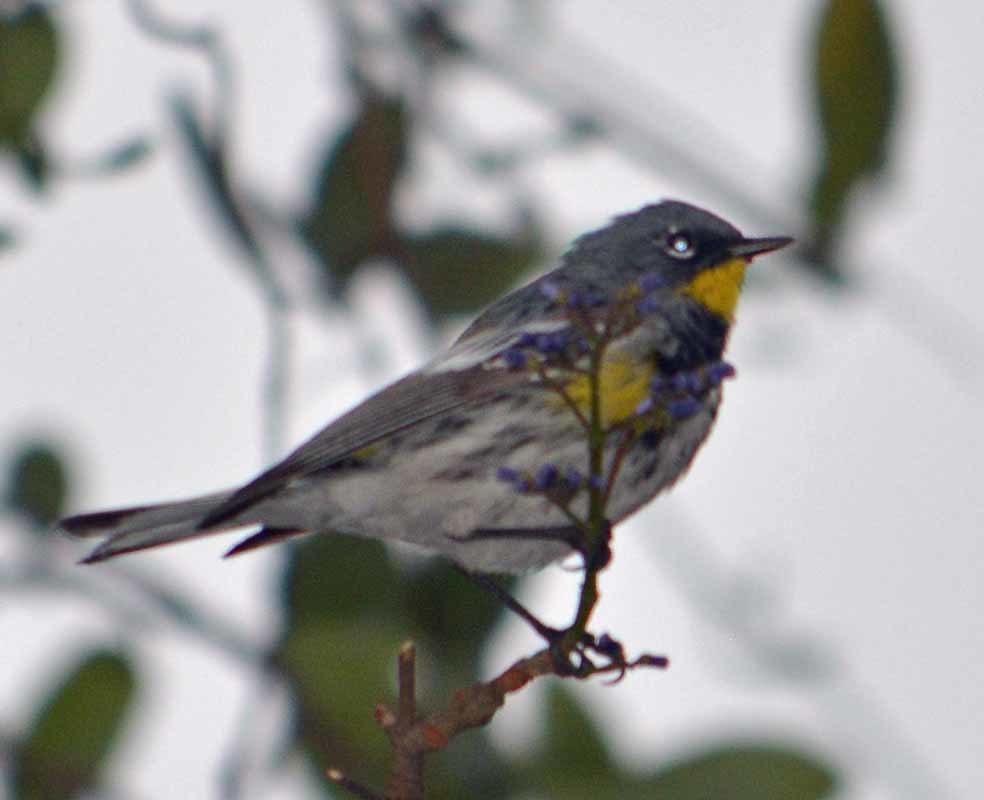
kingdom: Animalia
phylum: Chordata
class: Aves
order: Passeriformes
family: Parulidae
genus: Setophaga
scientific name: Setophaga auduboni
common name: Audubon's warbler
